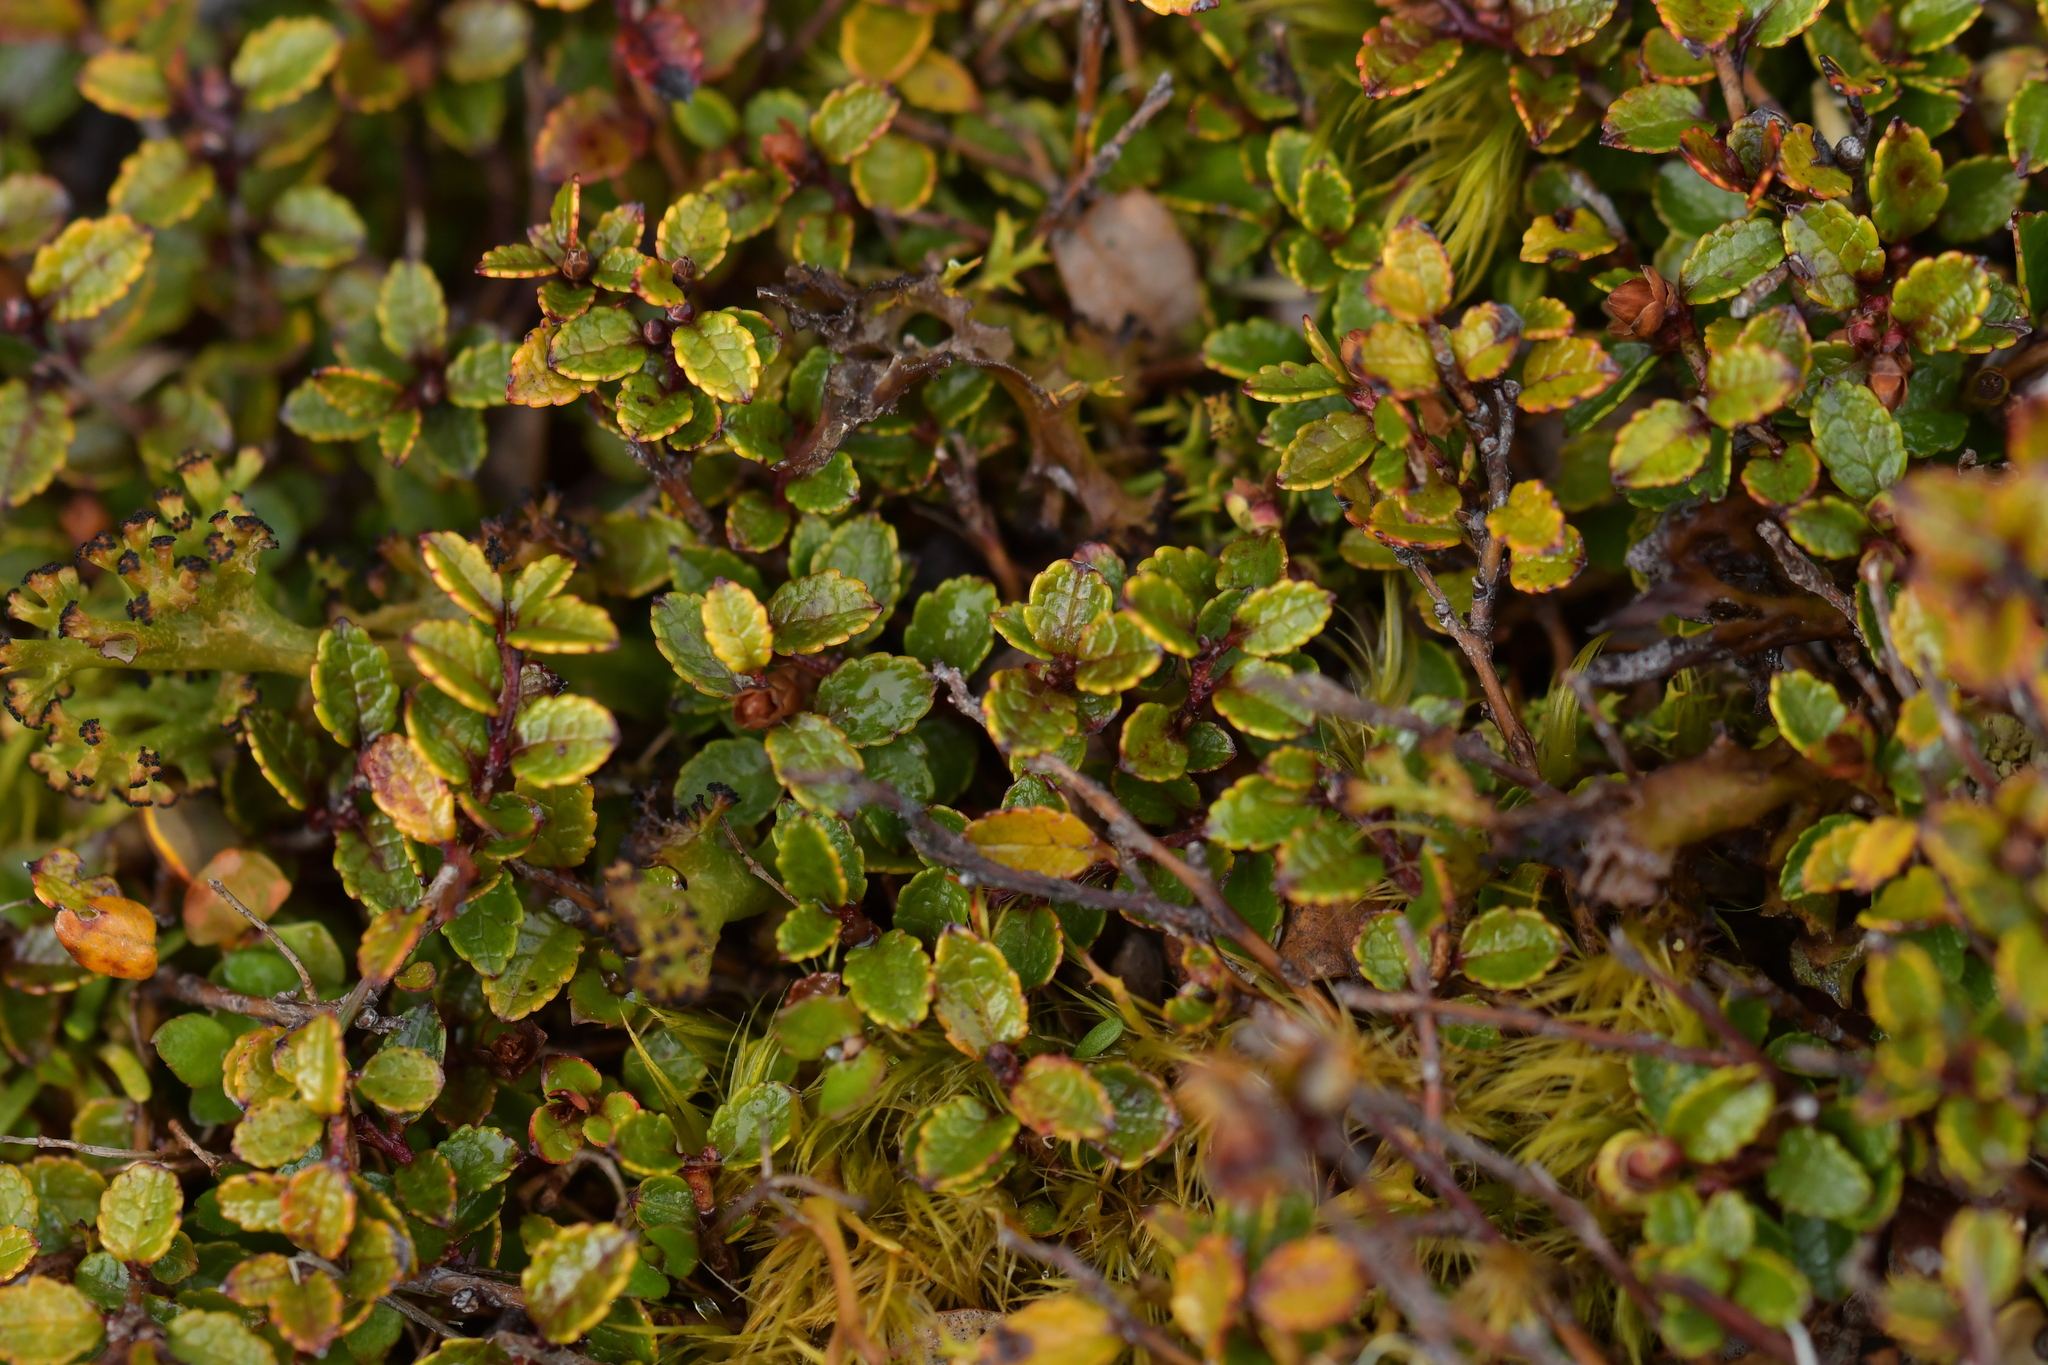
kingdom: Plantae
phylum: Tracheophyta
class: Magnoliopsida
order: Ericales
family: Ericaceae
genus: Gaultheria
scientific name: Gaultheria depressa
